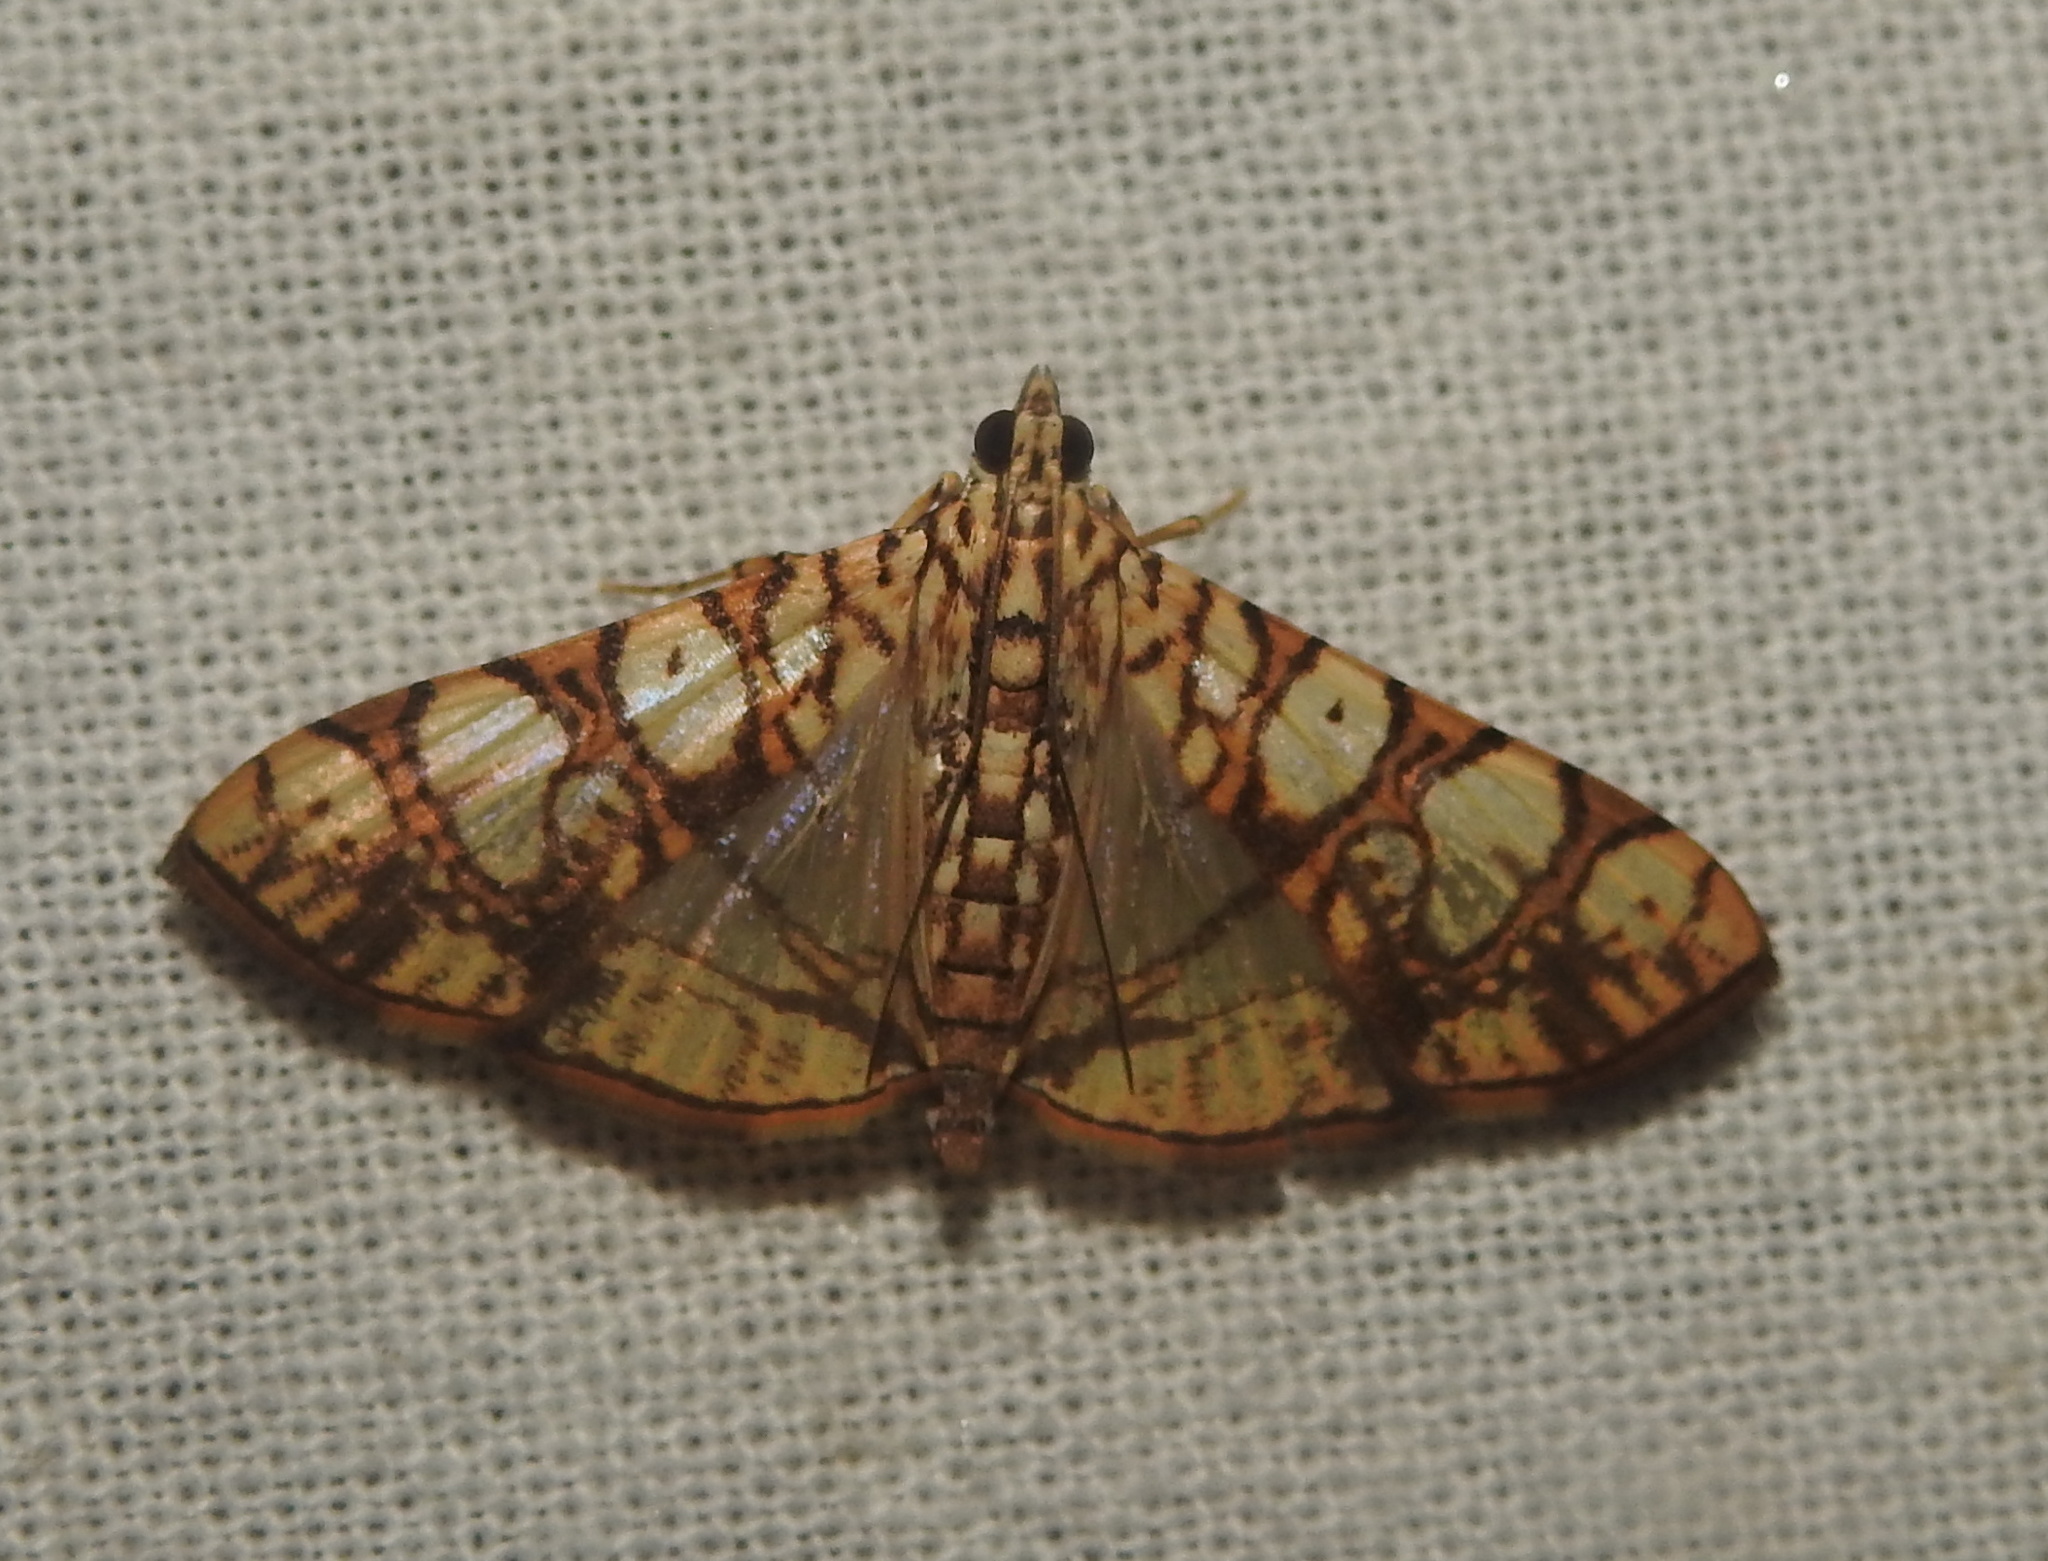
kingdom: Animalia
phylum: Arthropoda
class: Insecta
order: Lepidoptera
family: Crambidae
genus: Glyphodes
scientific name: Glyphodes caesalis
